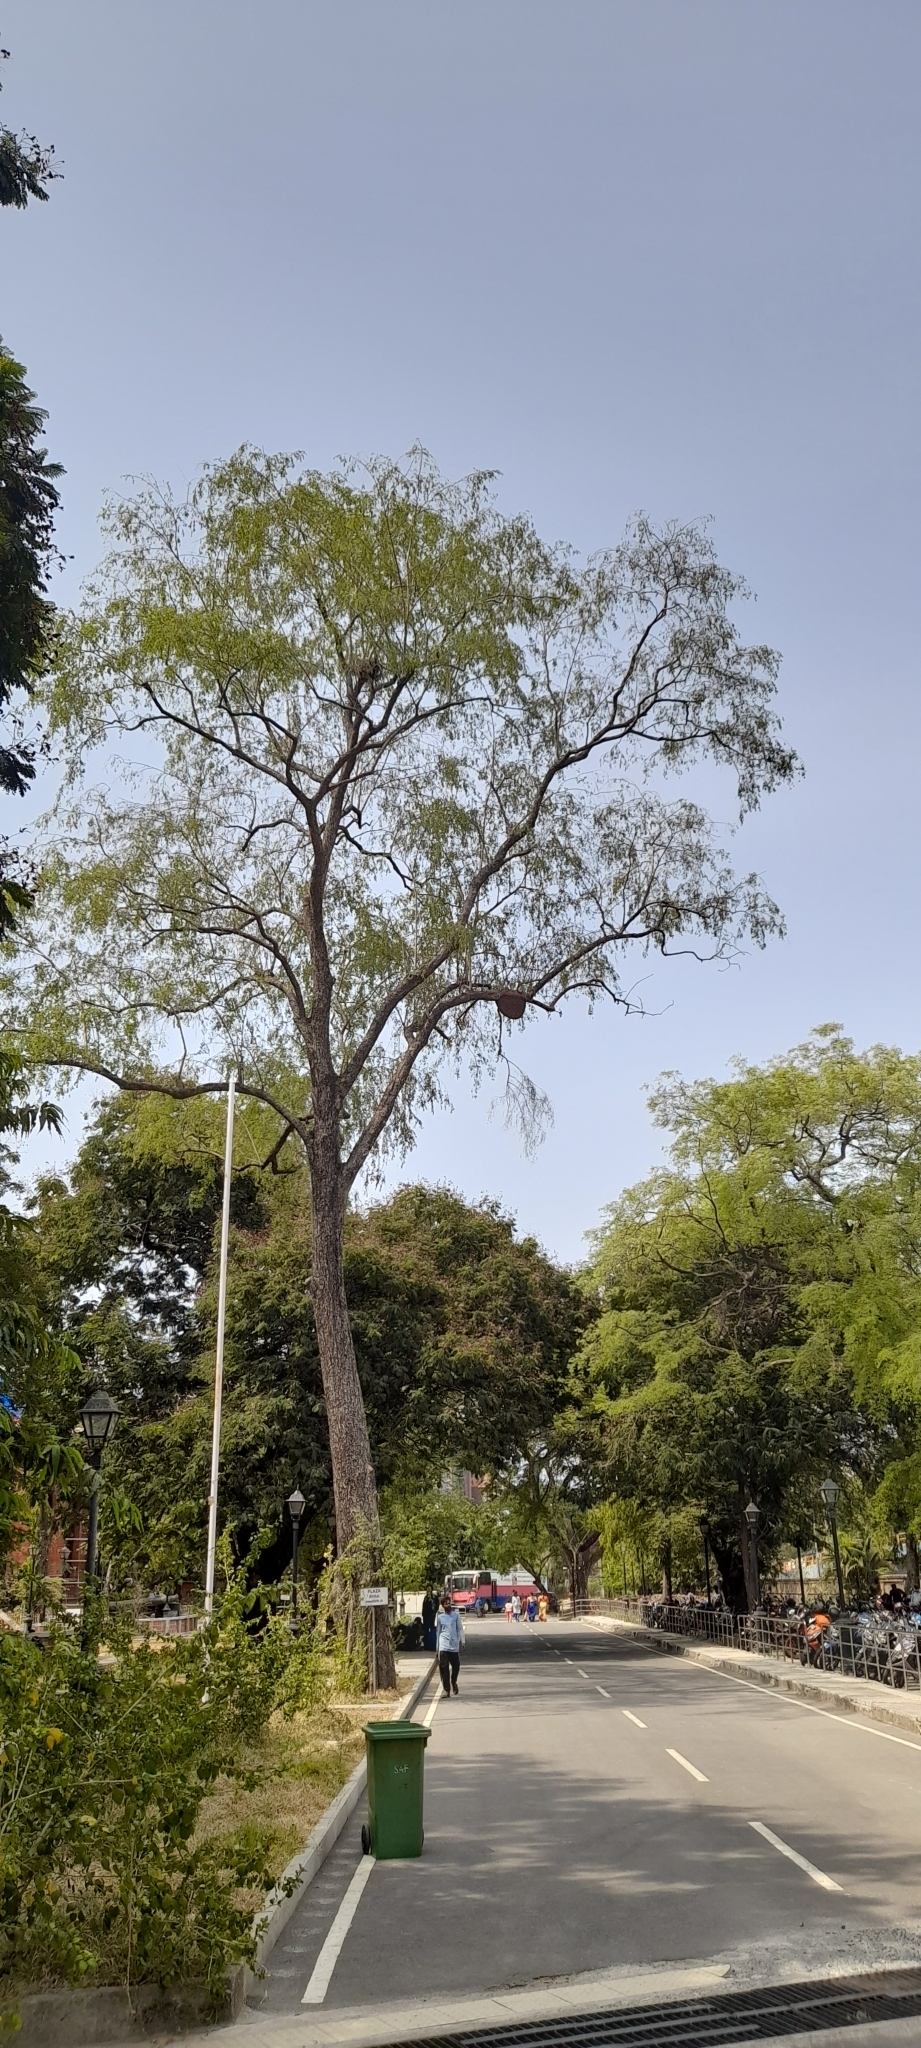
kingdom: Animalia
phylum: Arthropoda
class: Insecta
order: Hymenoptera
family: Apidae
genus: Apis
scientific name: Apis dorsata
